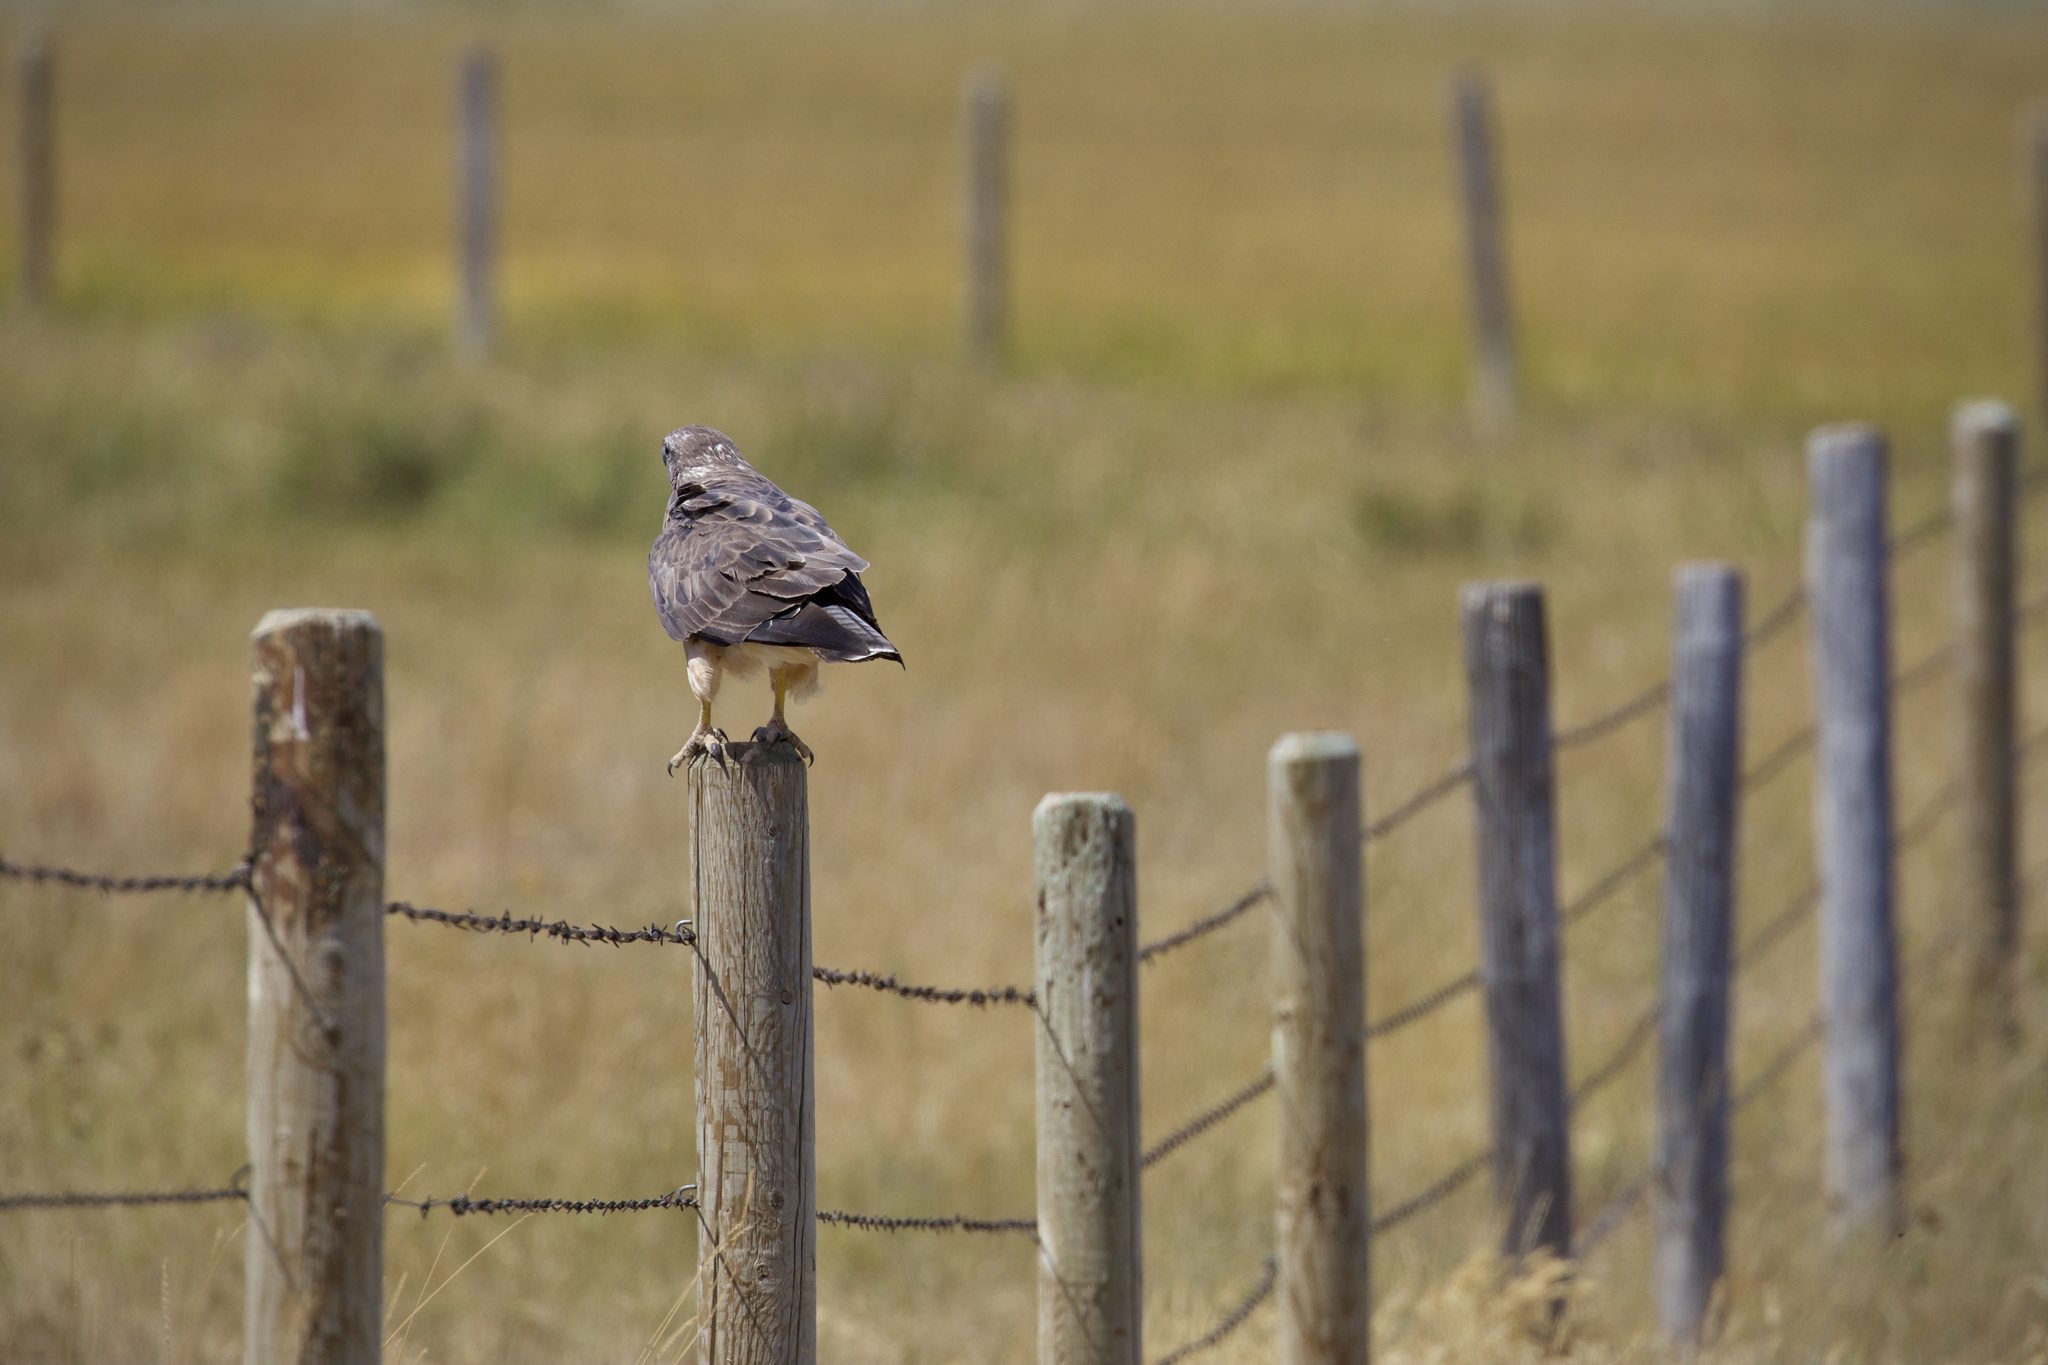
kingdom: Animalia
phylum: Chordata
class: Aves
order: Accipitriformes
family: Accipitridae
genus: Buteo
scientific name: Buteo swainsoni
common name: Swainson's hawk
